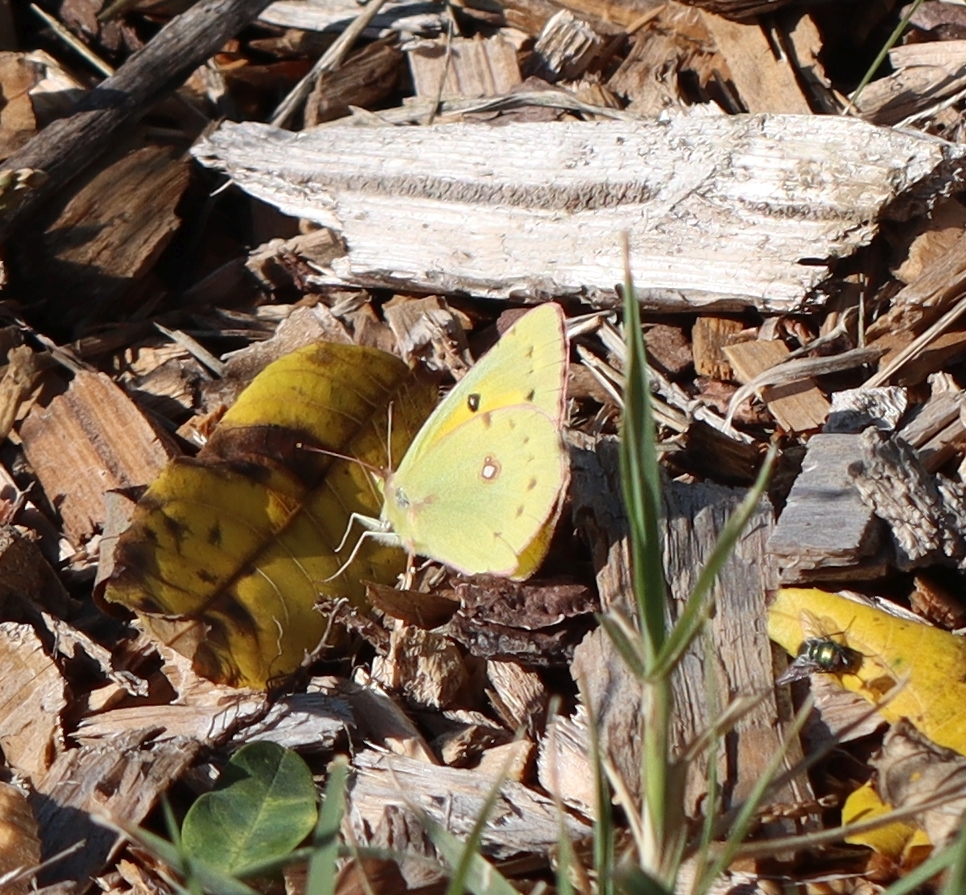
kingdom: Animalia
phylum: Arthropoda
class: Insecta
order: Lepidoptera
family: Pieridae
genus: Colias
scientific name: Colias eurytheme
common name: Alfalfa butterfly
